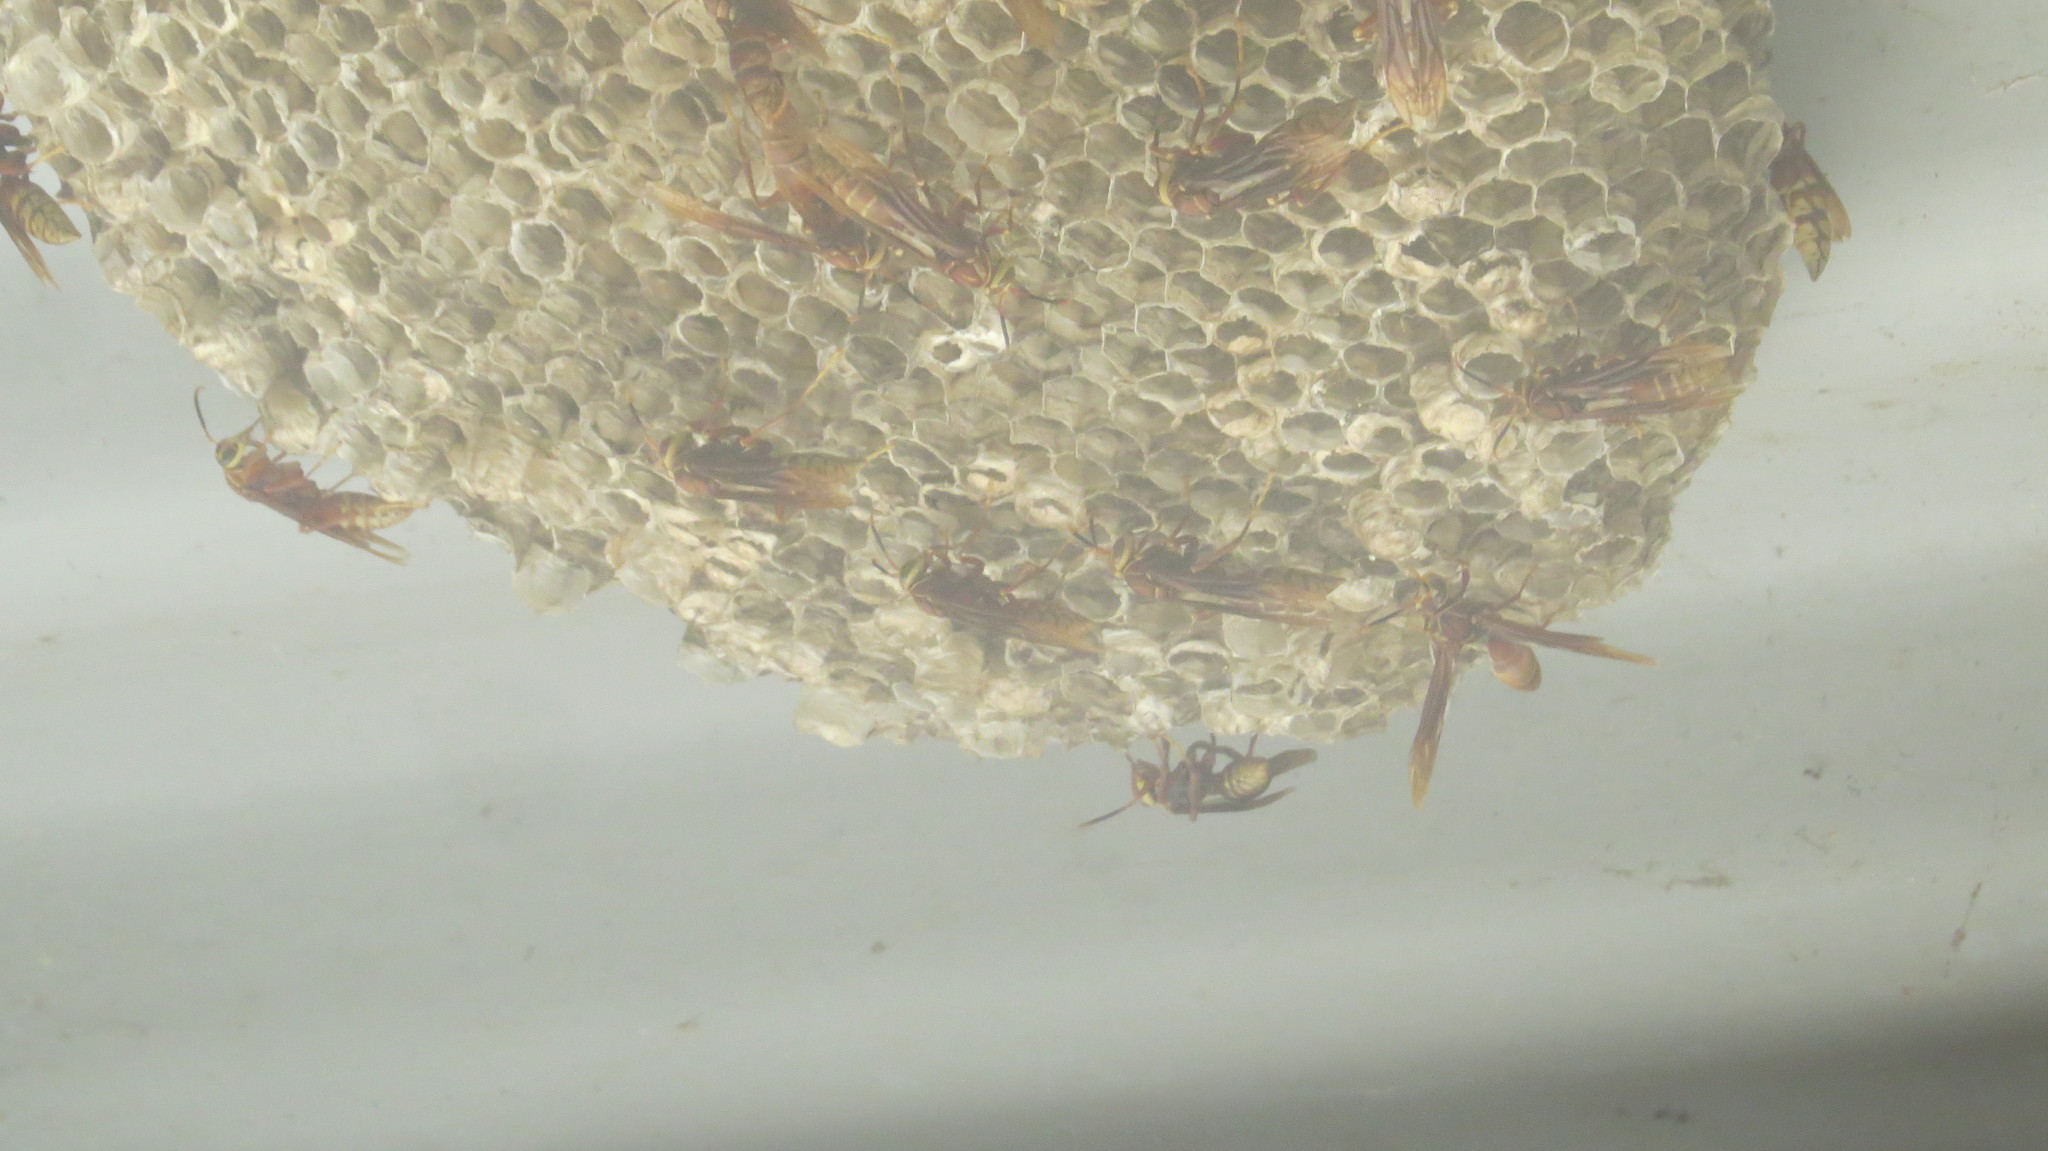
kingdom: Animalia
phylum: Arthropoda
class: Insecta
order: Hymenoptera
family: Eumenidae
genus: Polistes
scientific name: Polistes cavapyta
